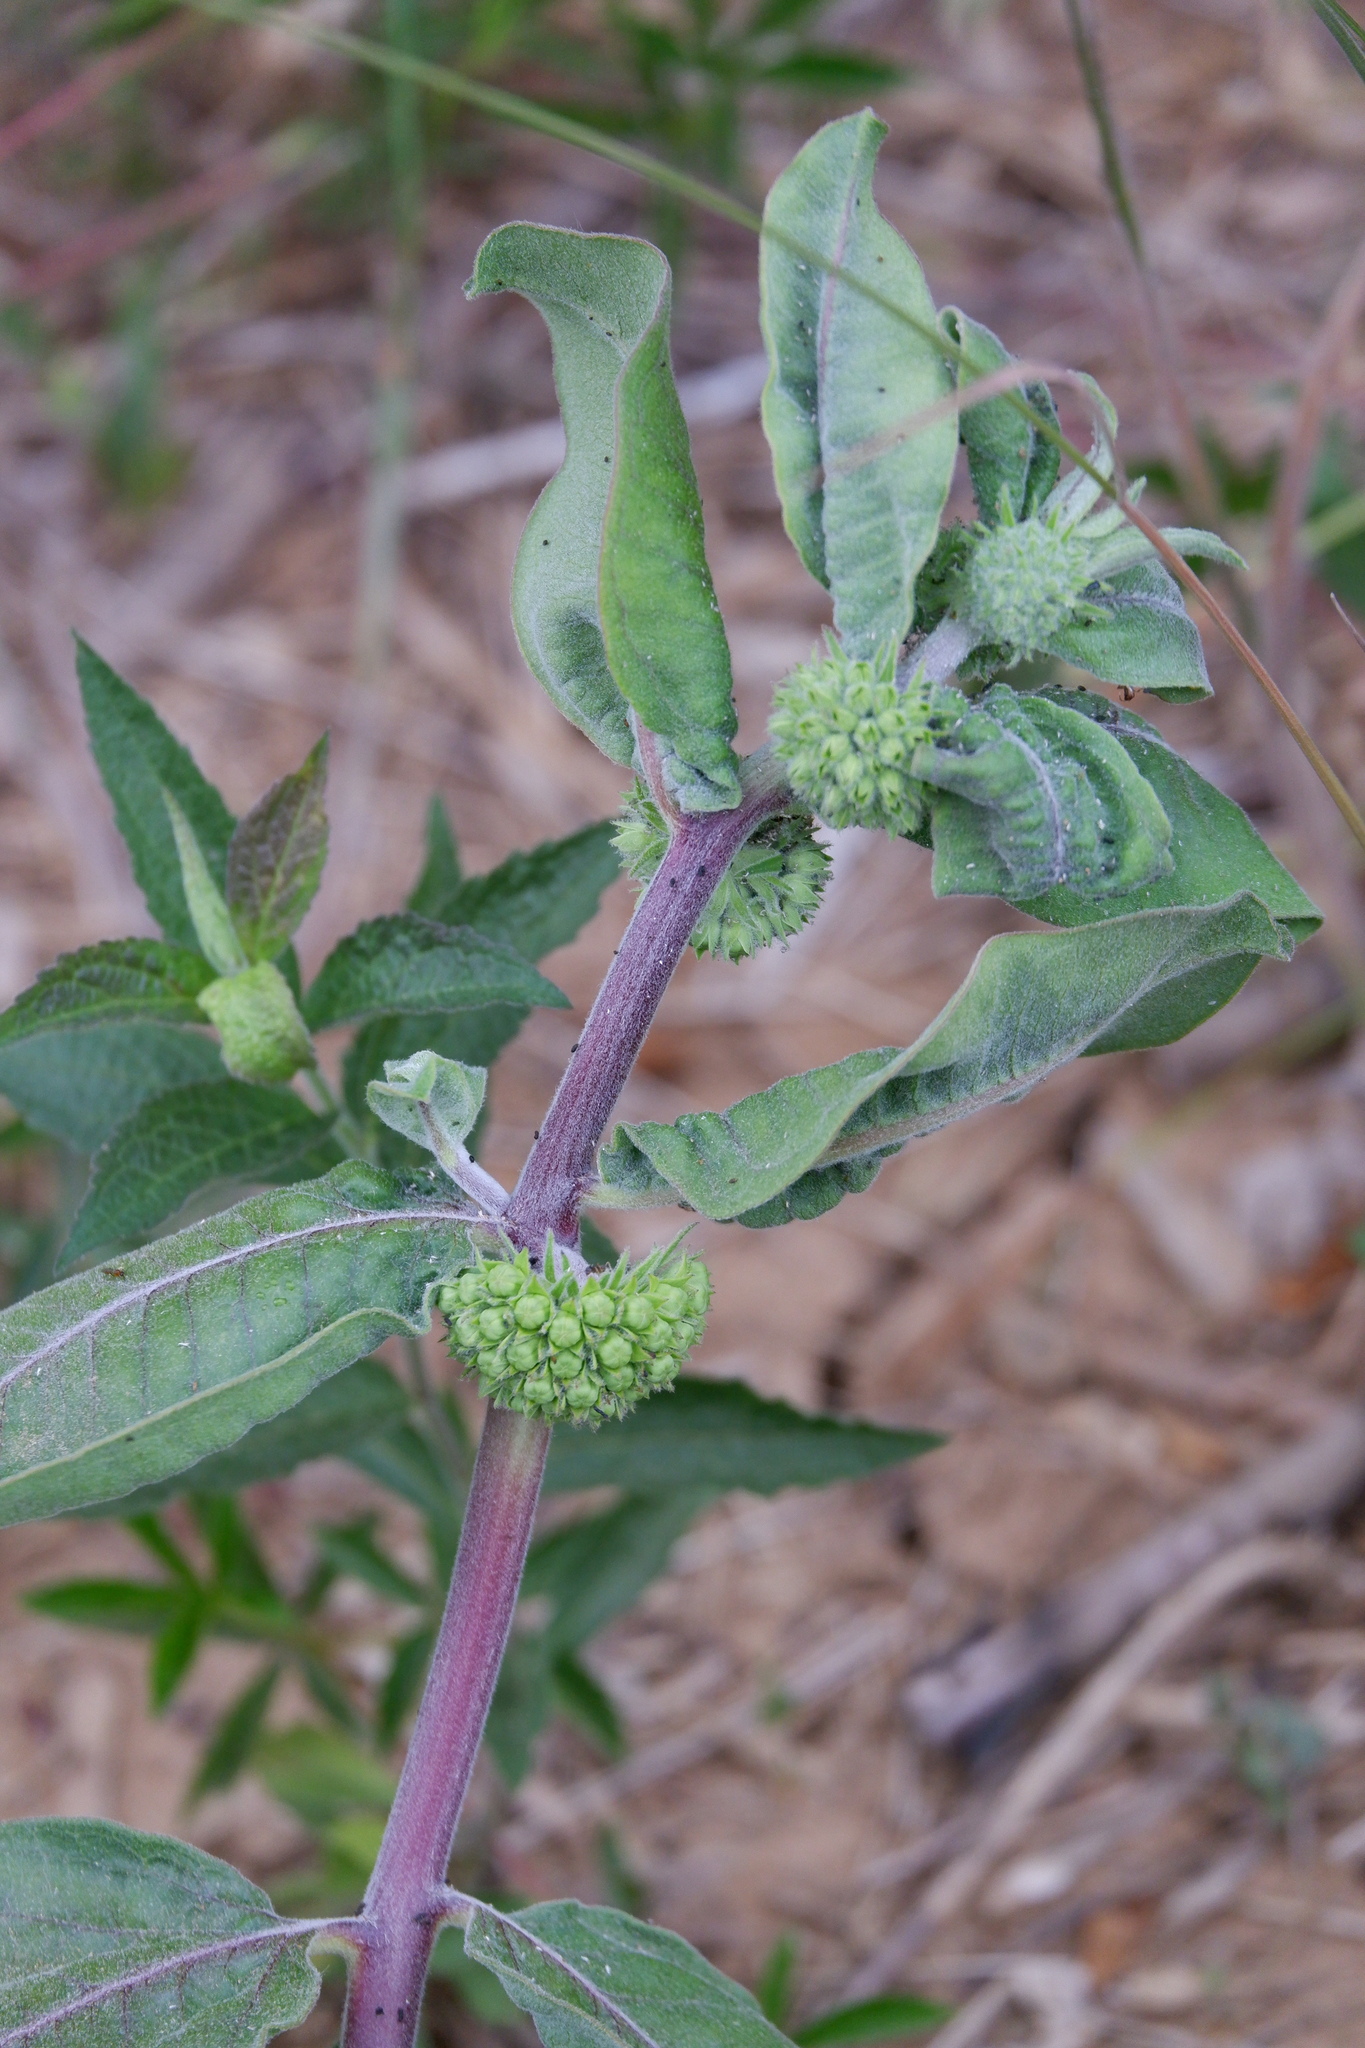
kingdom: Plantae
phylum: Tracheophyta
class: Magnoliopsida
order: Gentianales
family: Apocynaceae
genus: Asclepias
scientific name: Asclepias viridiflora
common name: Green comet milkweed
